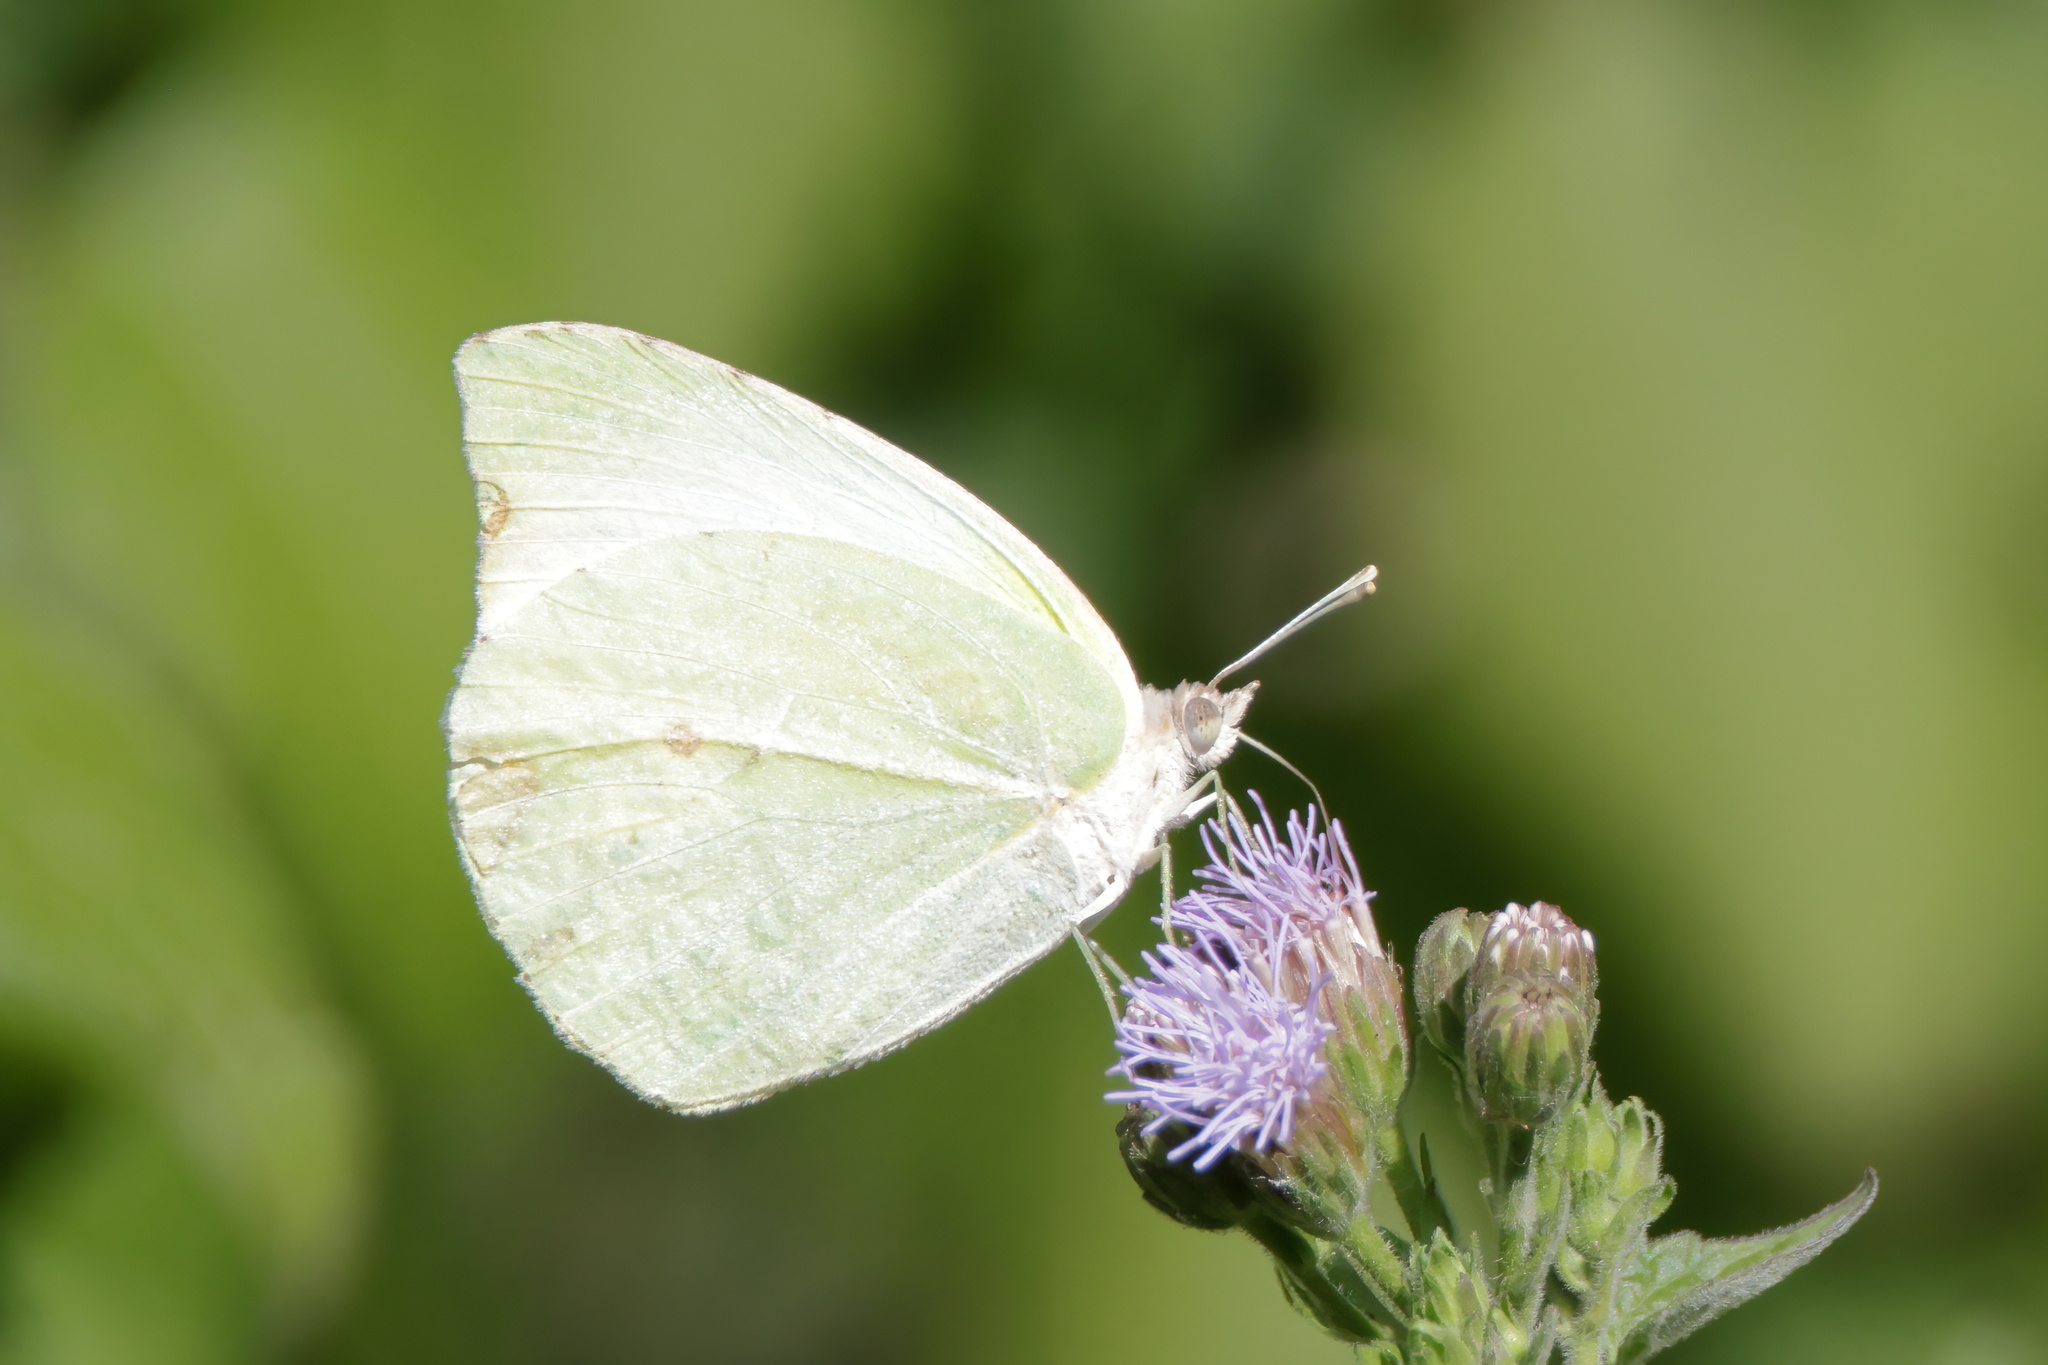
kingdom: Animalia
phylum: Arthropoda
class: Insecta
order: Lepidoptera
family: Pieridae
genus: Kricogonia
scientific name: Kricogonia lyside
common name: Guayacan sulphur,
